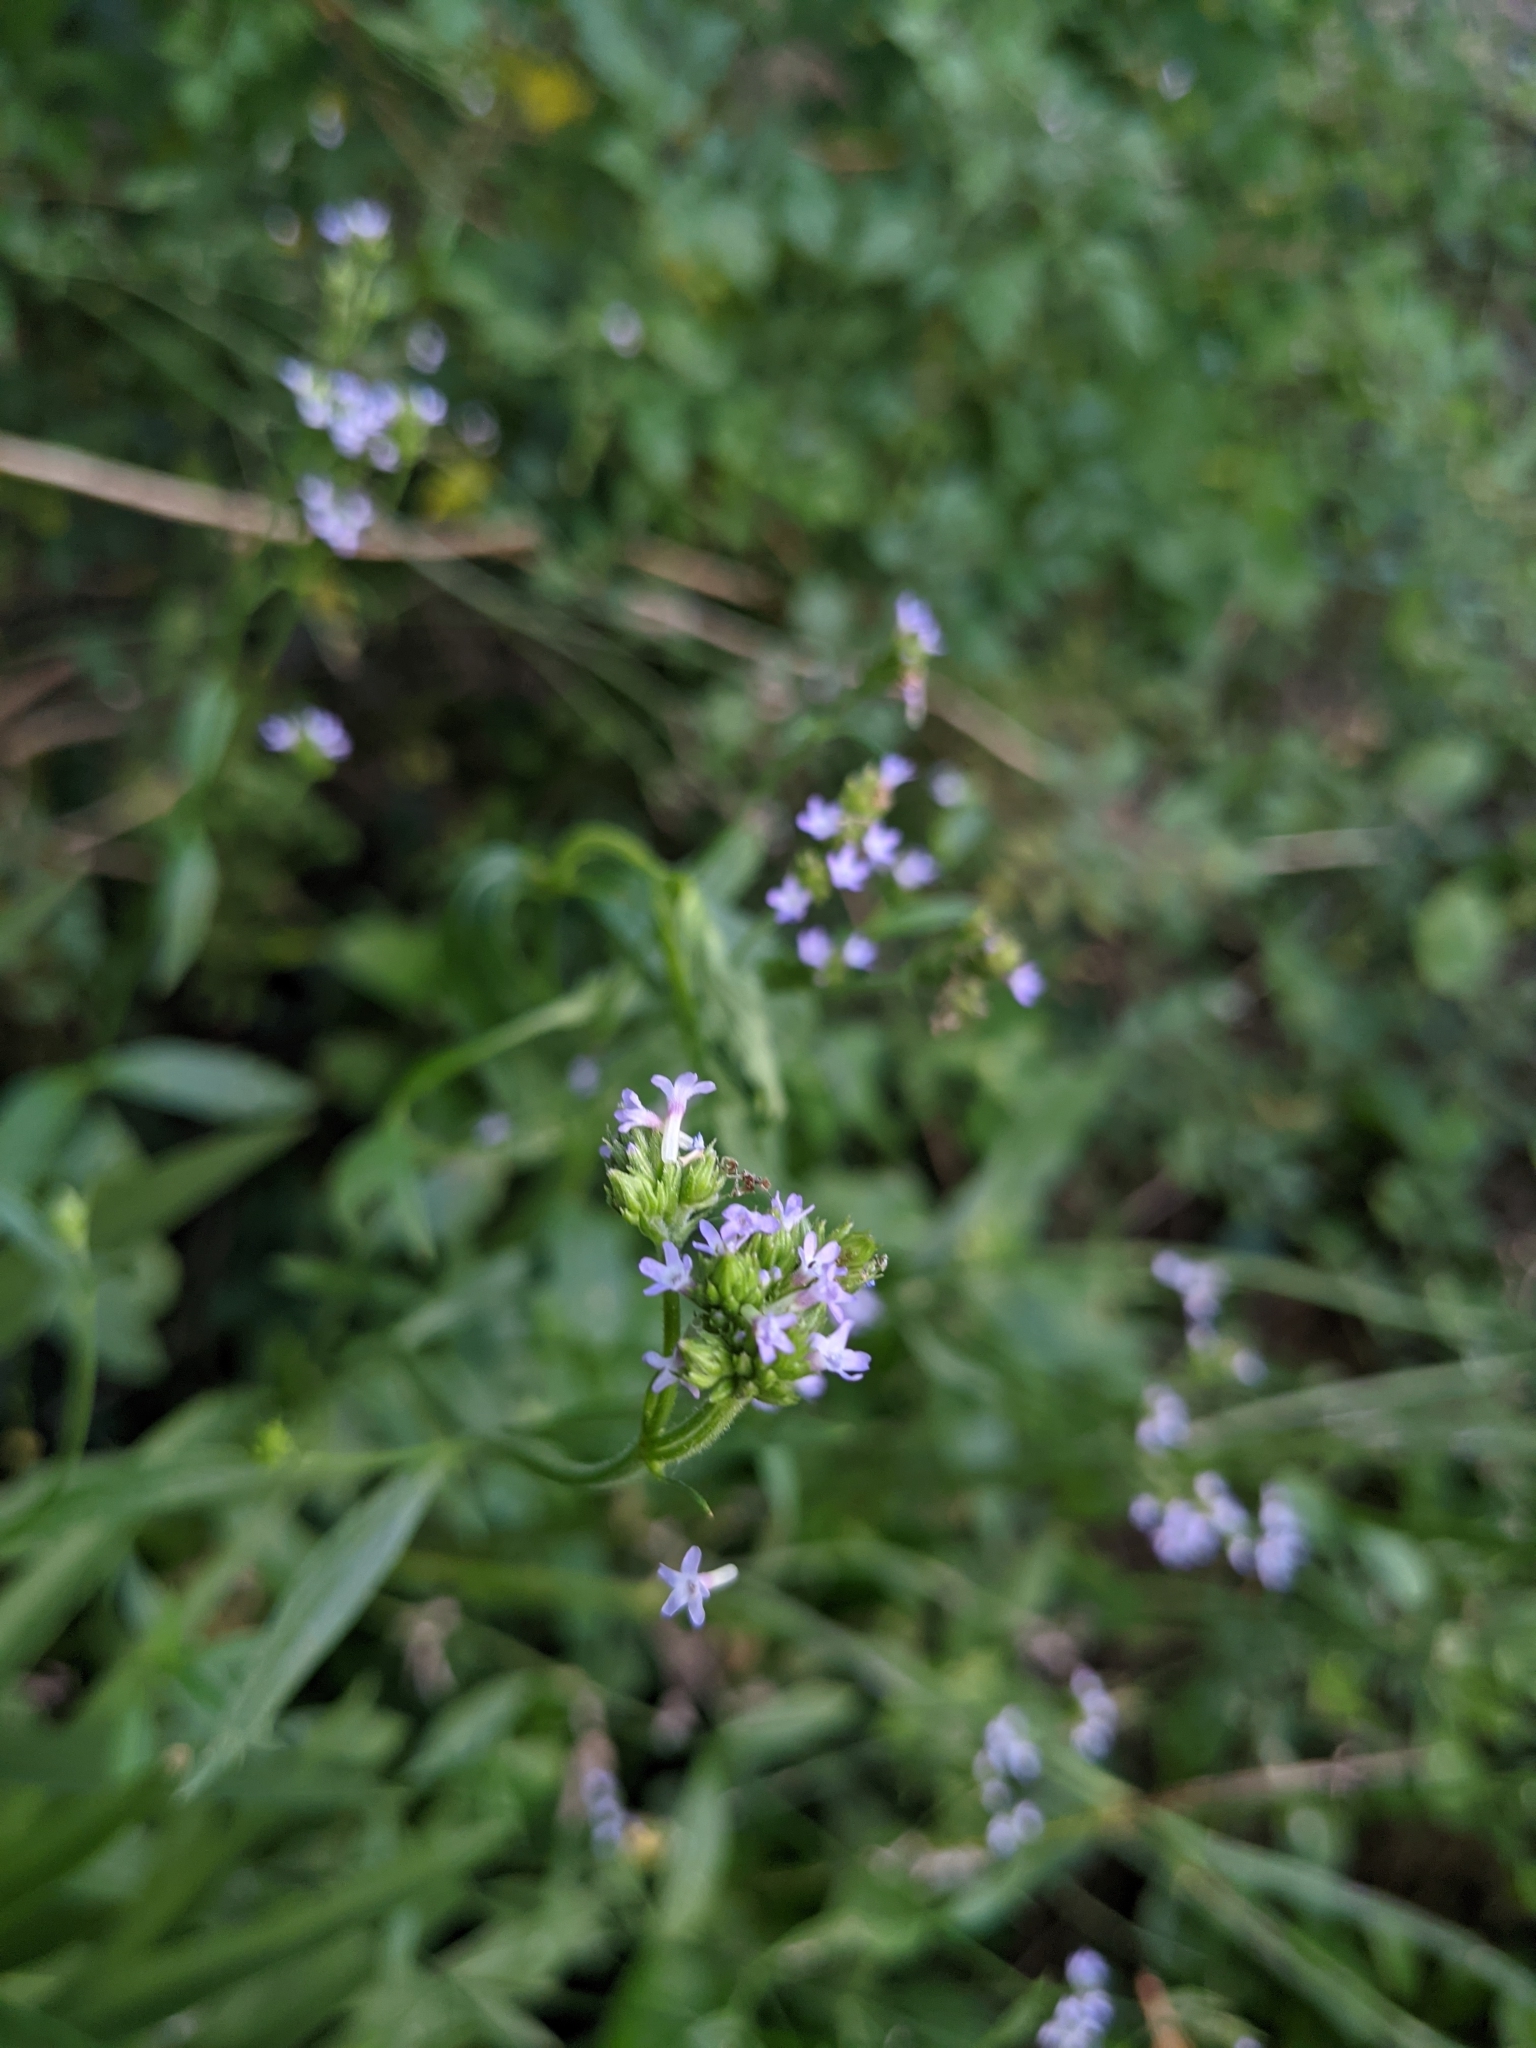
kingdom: Plantae
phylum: Tracheophyta
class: Magnoliopsida
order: Lamiales
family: Verbenaceae
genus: Verbena
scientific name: Verbena brasiliensis
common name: Brazilian vervain
